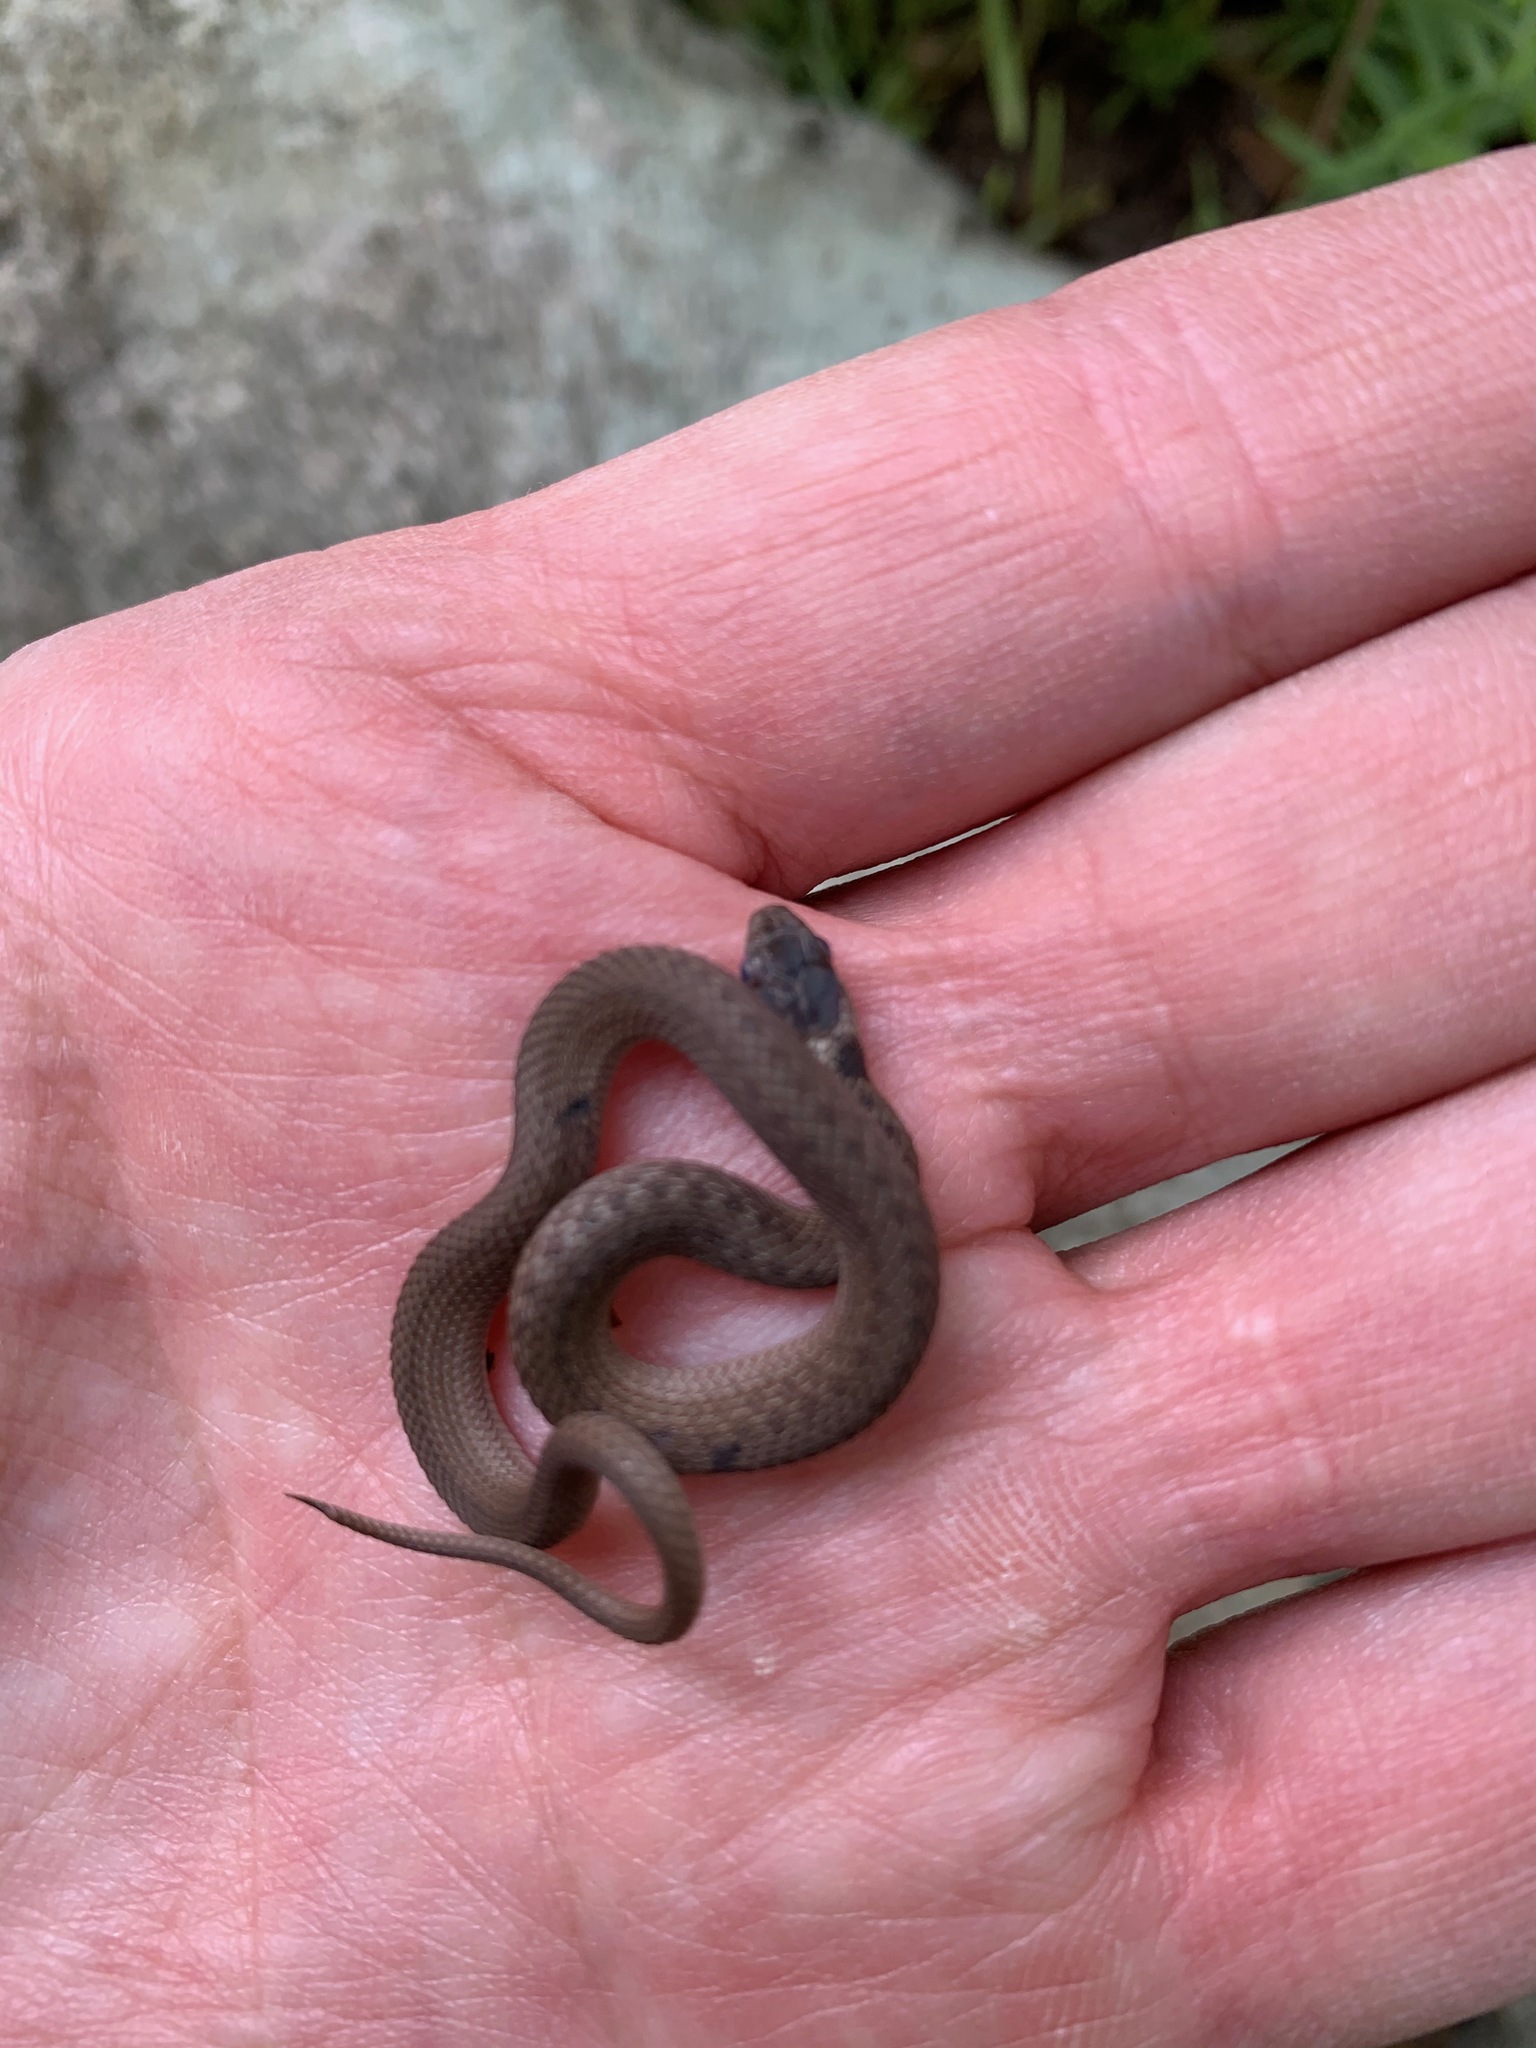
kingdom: Animalia
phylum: Chordata
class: Squamata
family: Colubridae
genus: Storeria
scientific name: Storeria dekayi
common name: (dekay’s) brown snake
